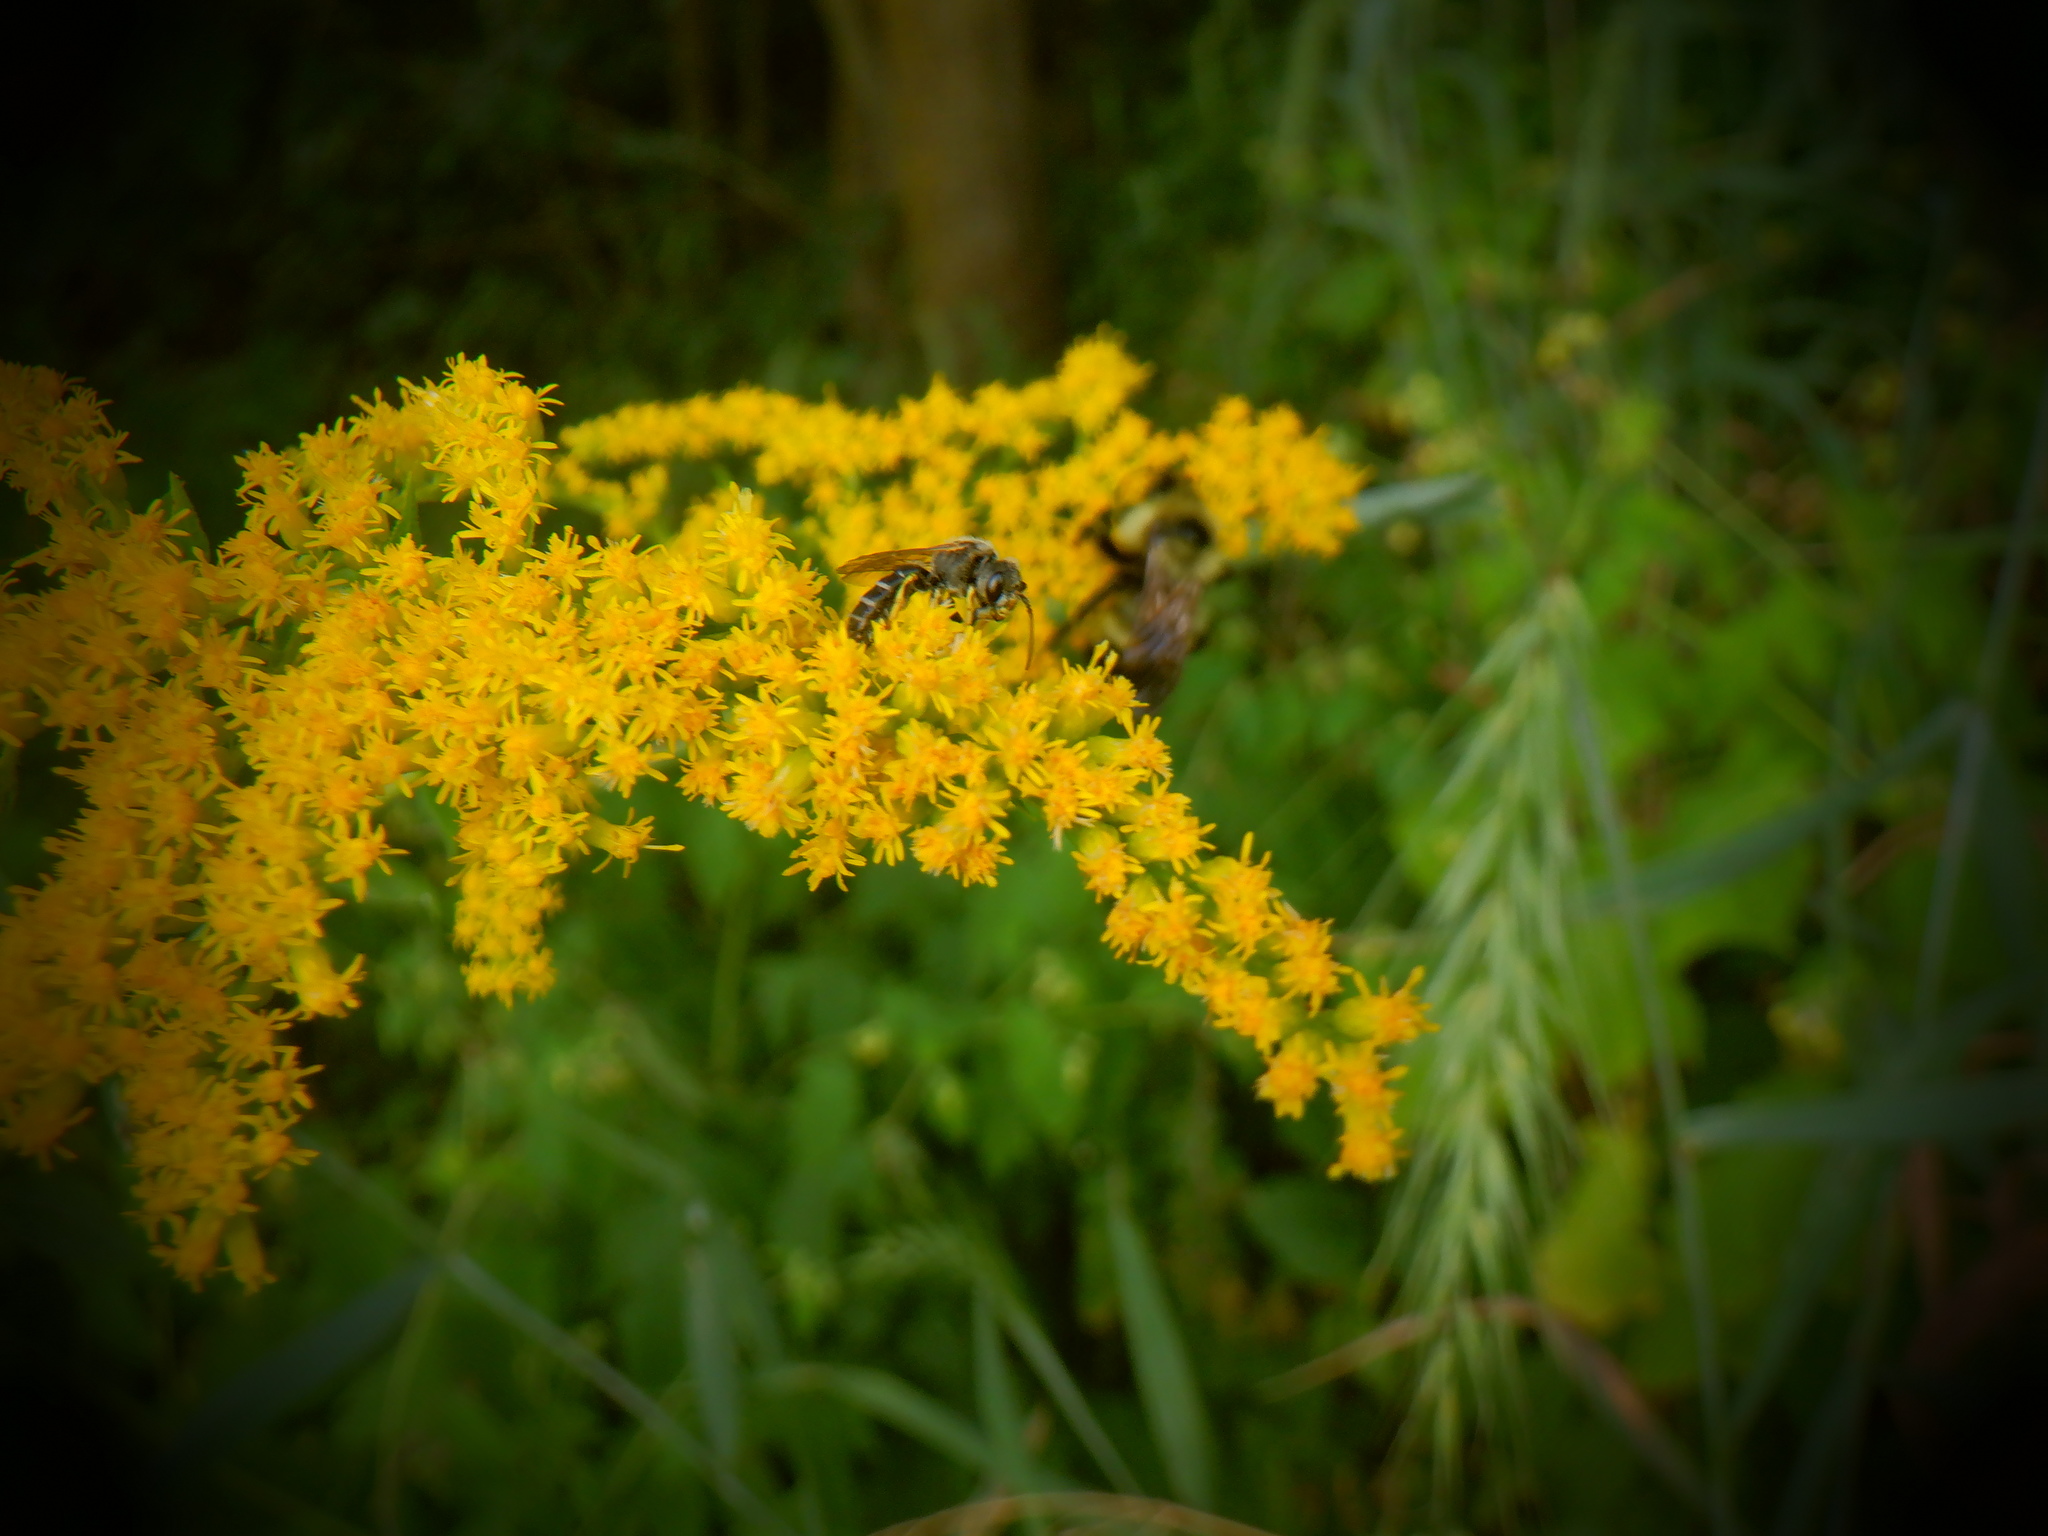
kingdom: Animalia
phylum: Arthropoda
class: Insecta
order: Hymenoptera
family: Halictidae
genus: Halictus
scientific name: Halictus ligatus
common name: Ligated furrow bee
